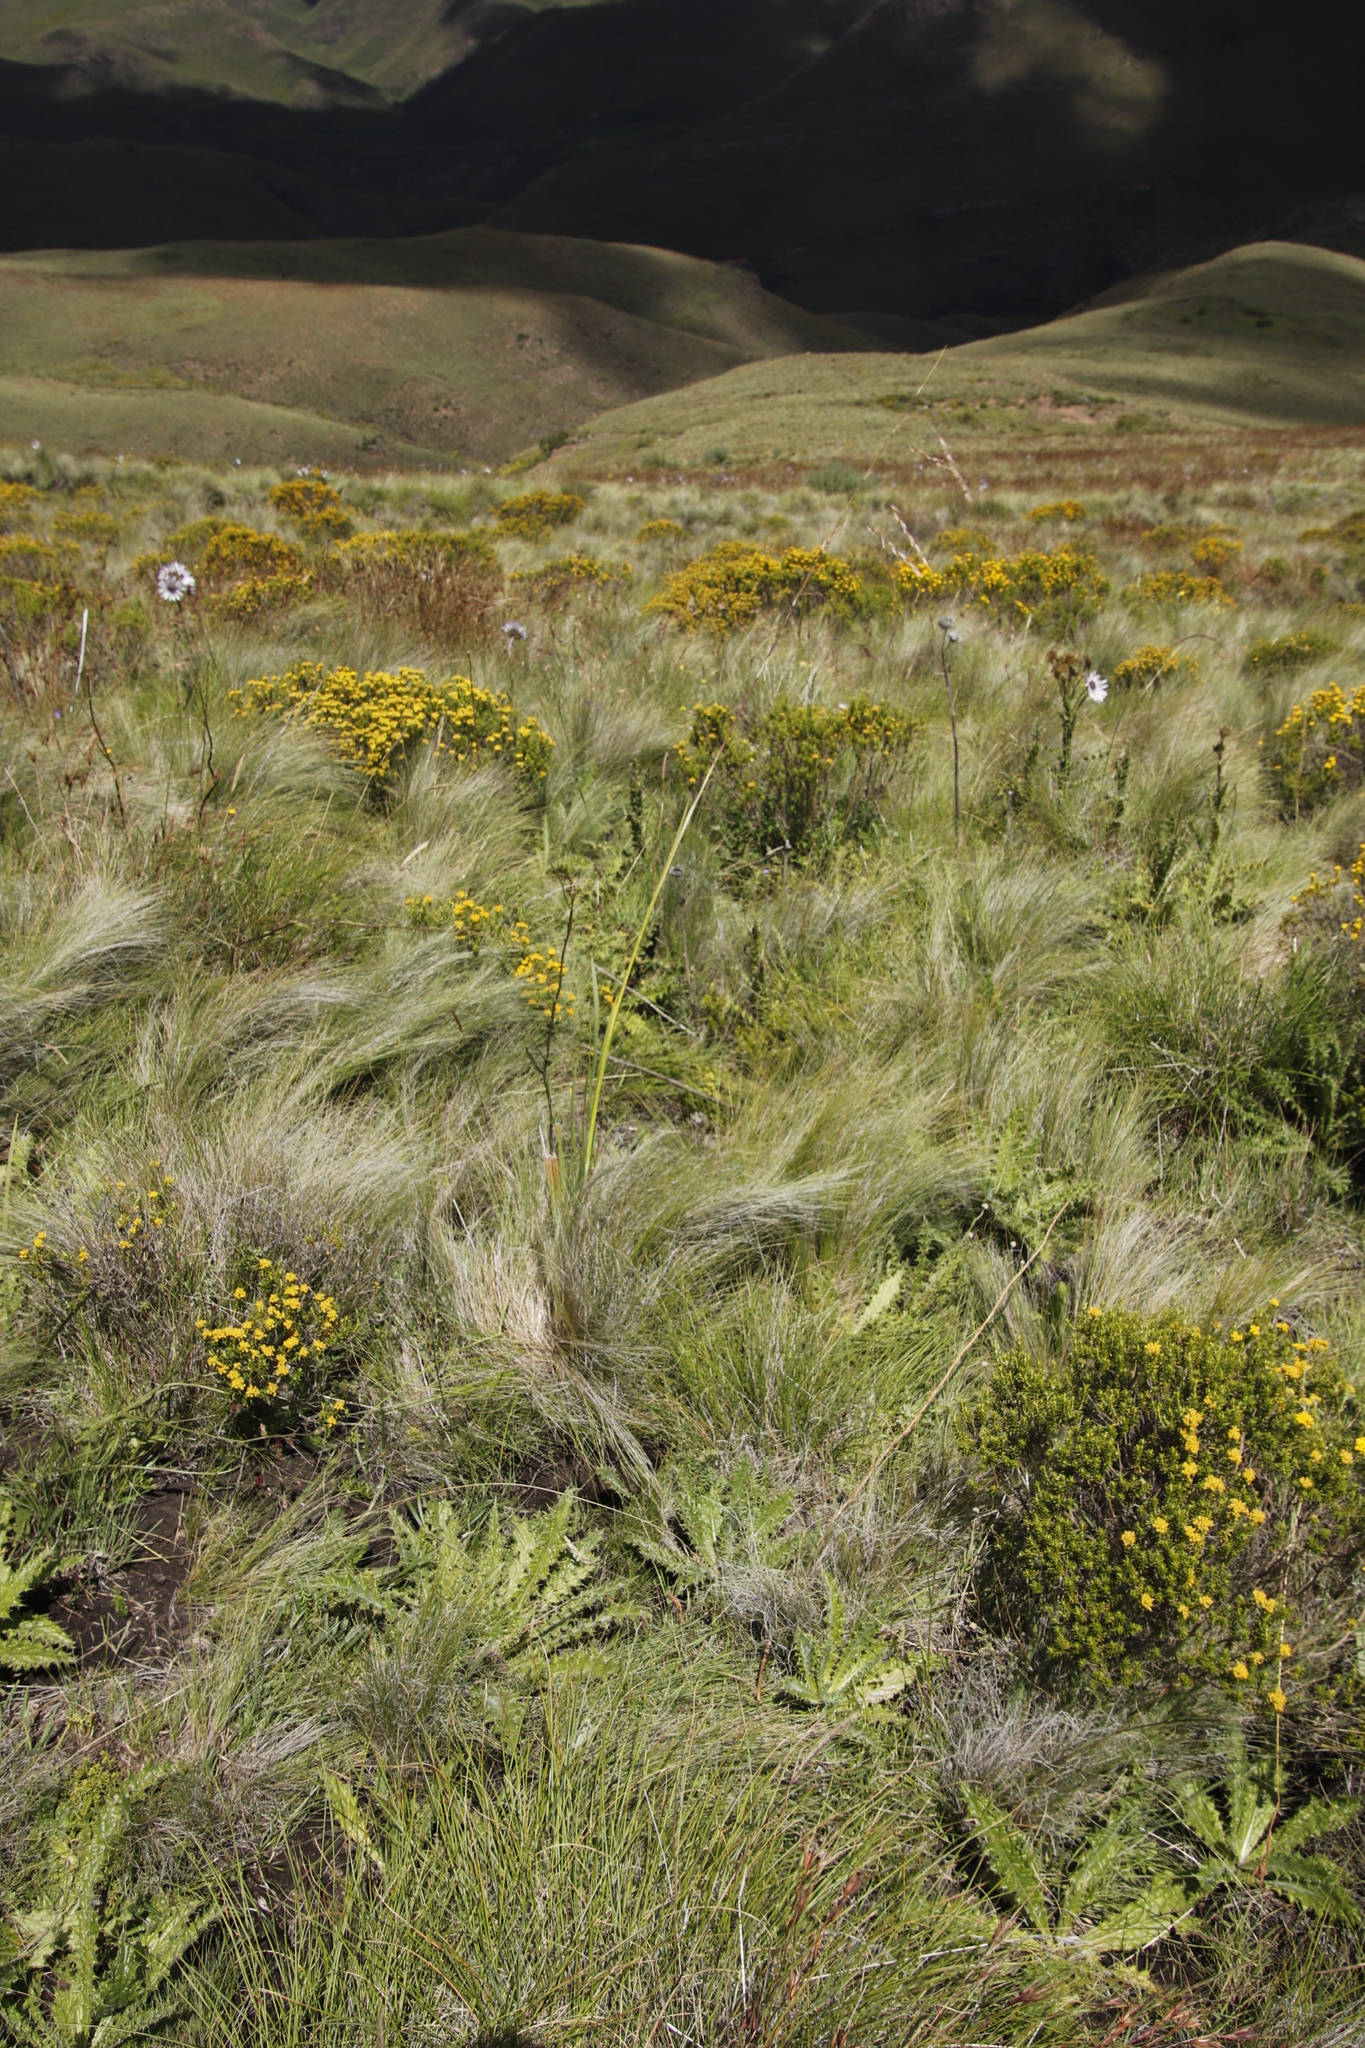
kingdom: Plantae
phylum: Tracheophyta
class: Magnoliopsida
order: Asterales
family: Asteraceae
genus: Berkheya
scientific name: Berkheya purpurea
